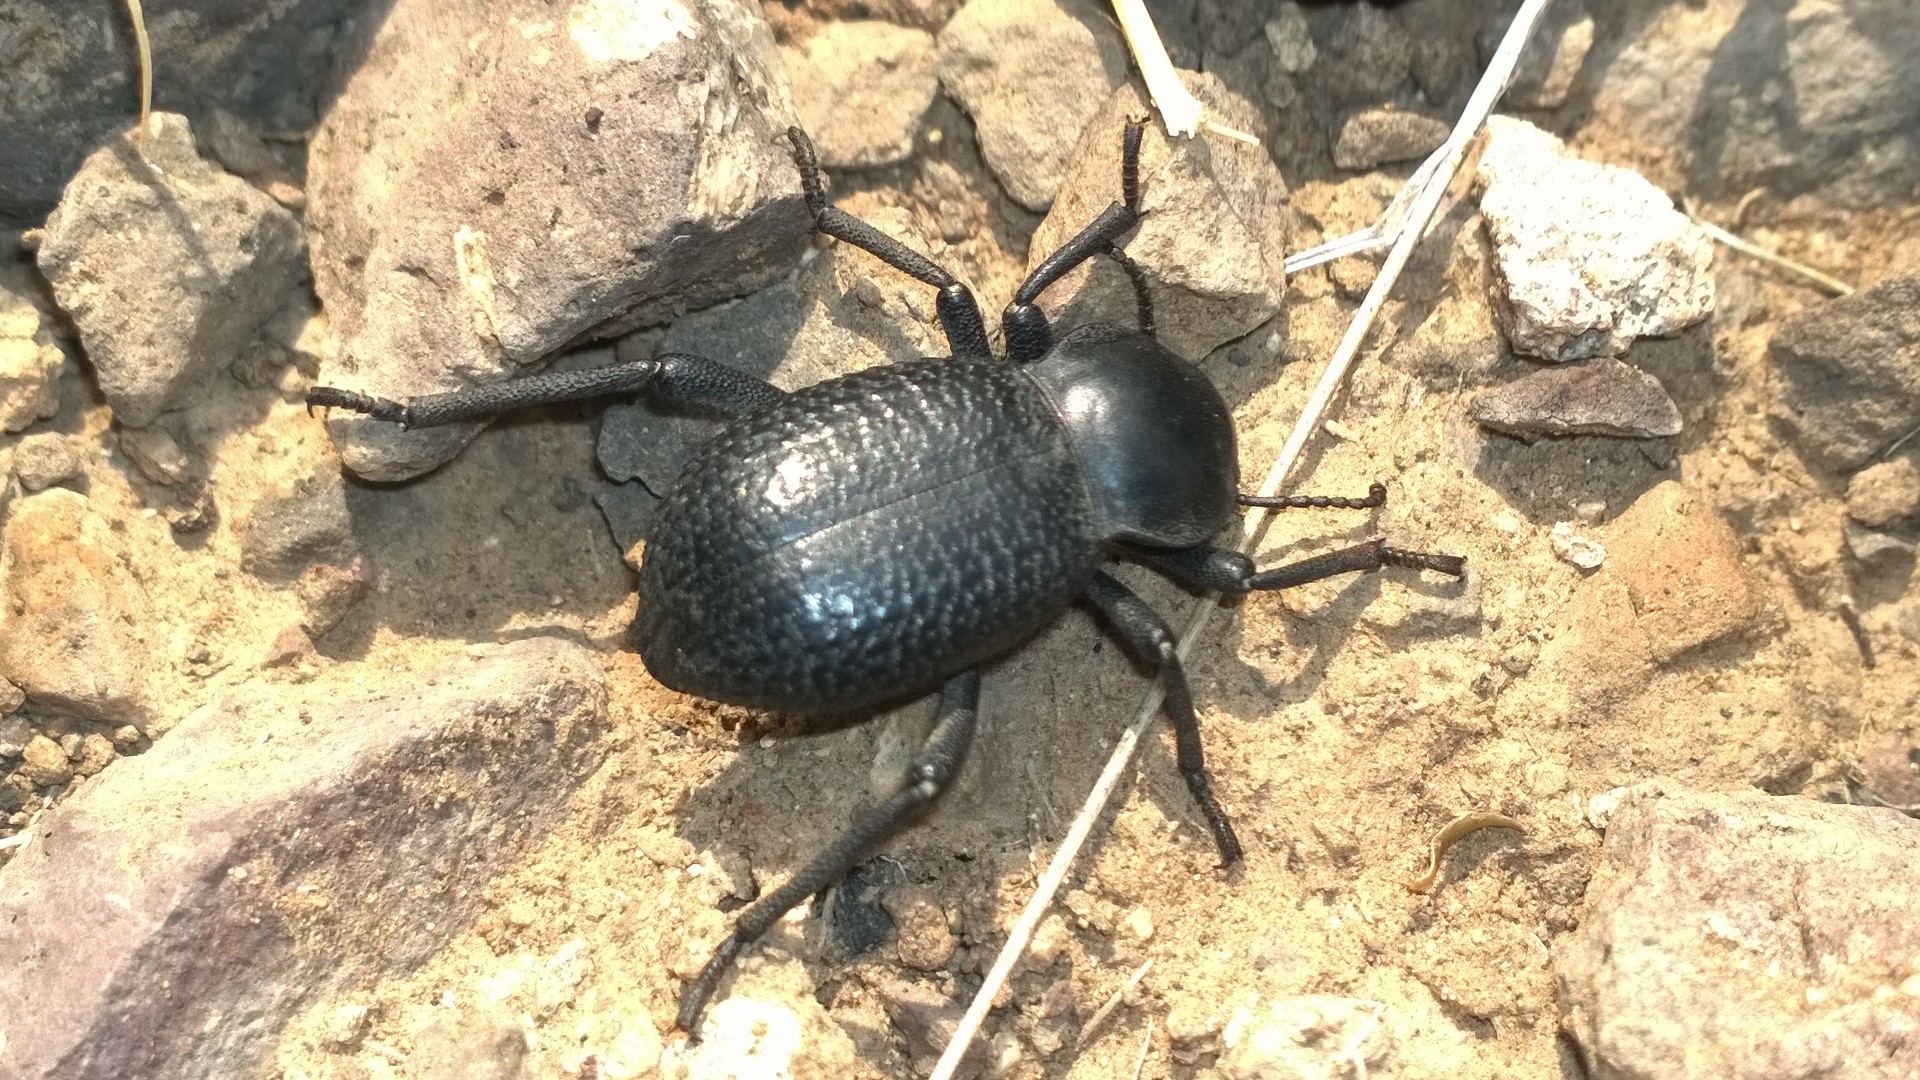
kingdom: Animalia
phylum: Arthropoda
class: Insecta
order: Coleoptera
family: Tenebrionidae
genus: Cryptoglossa
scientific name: Cryptoglossa infausta
